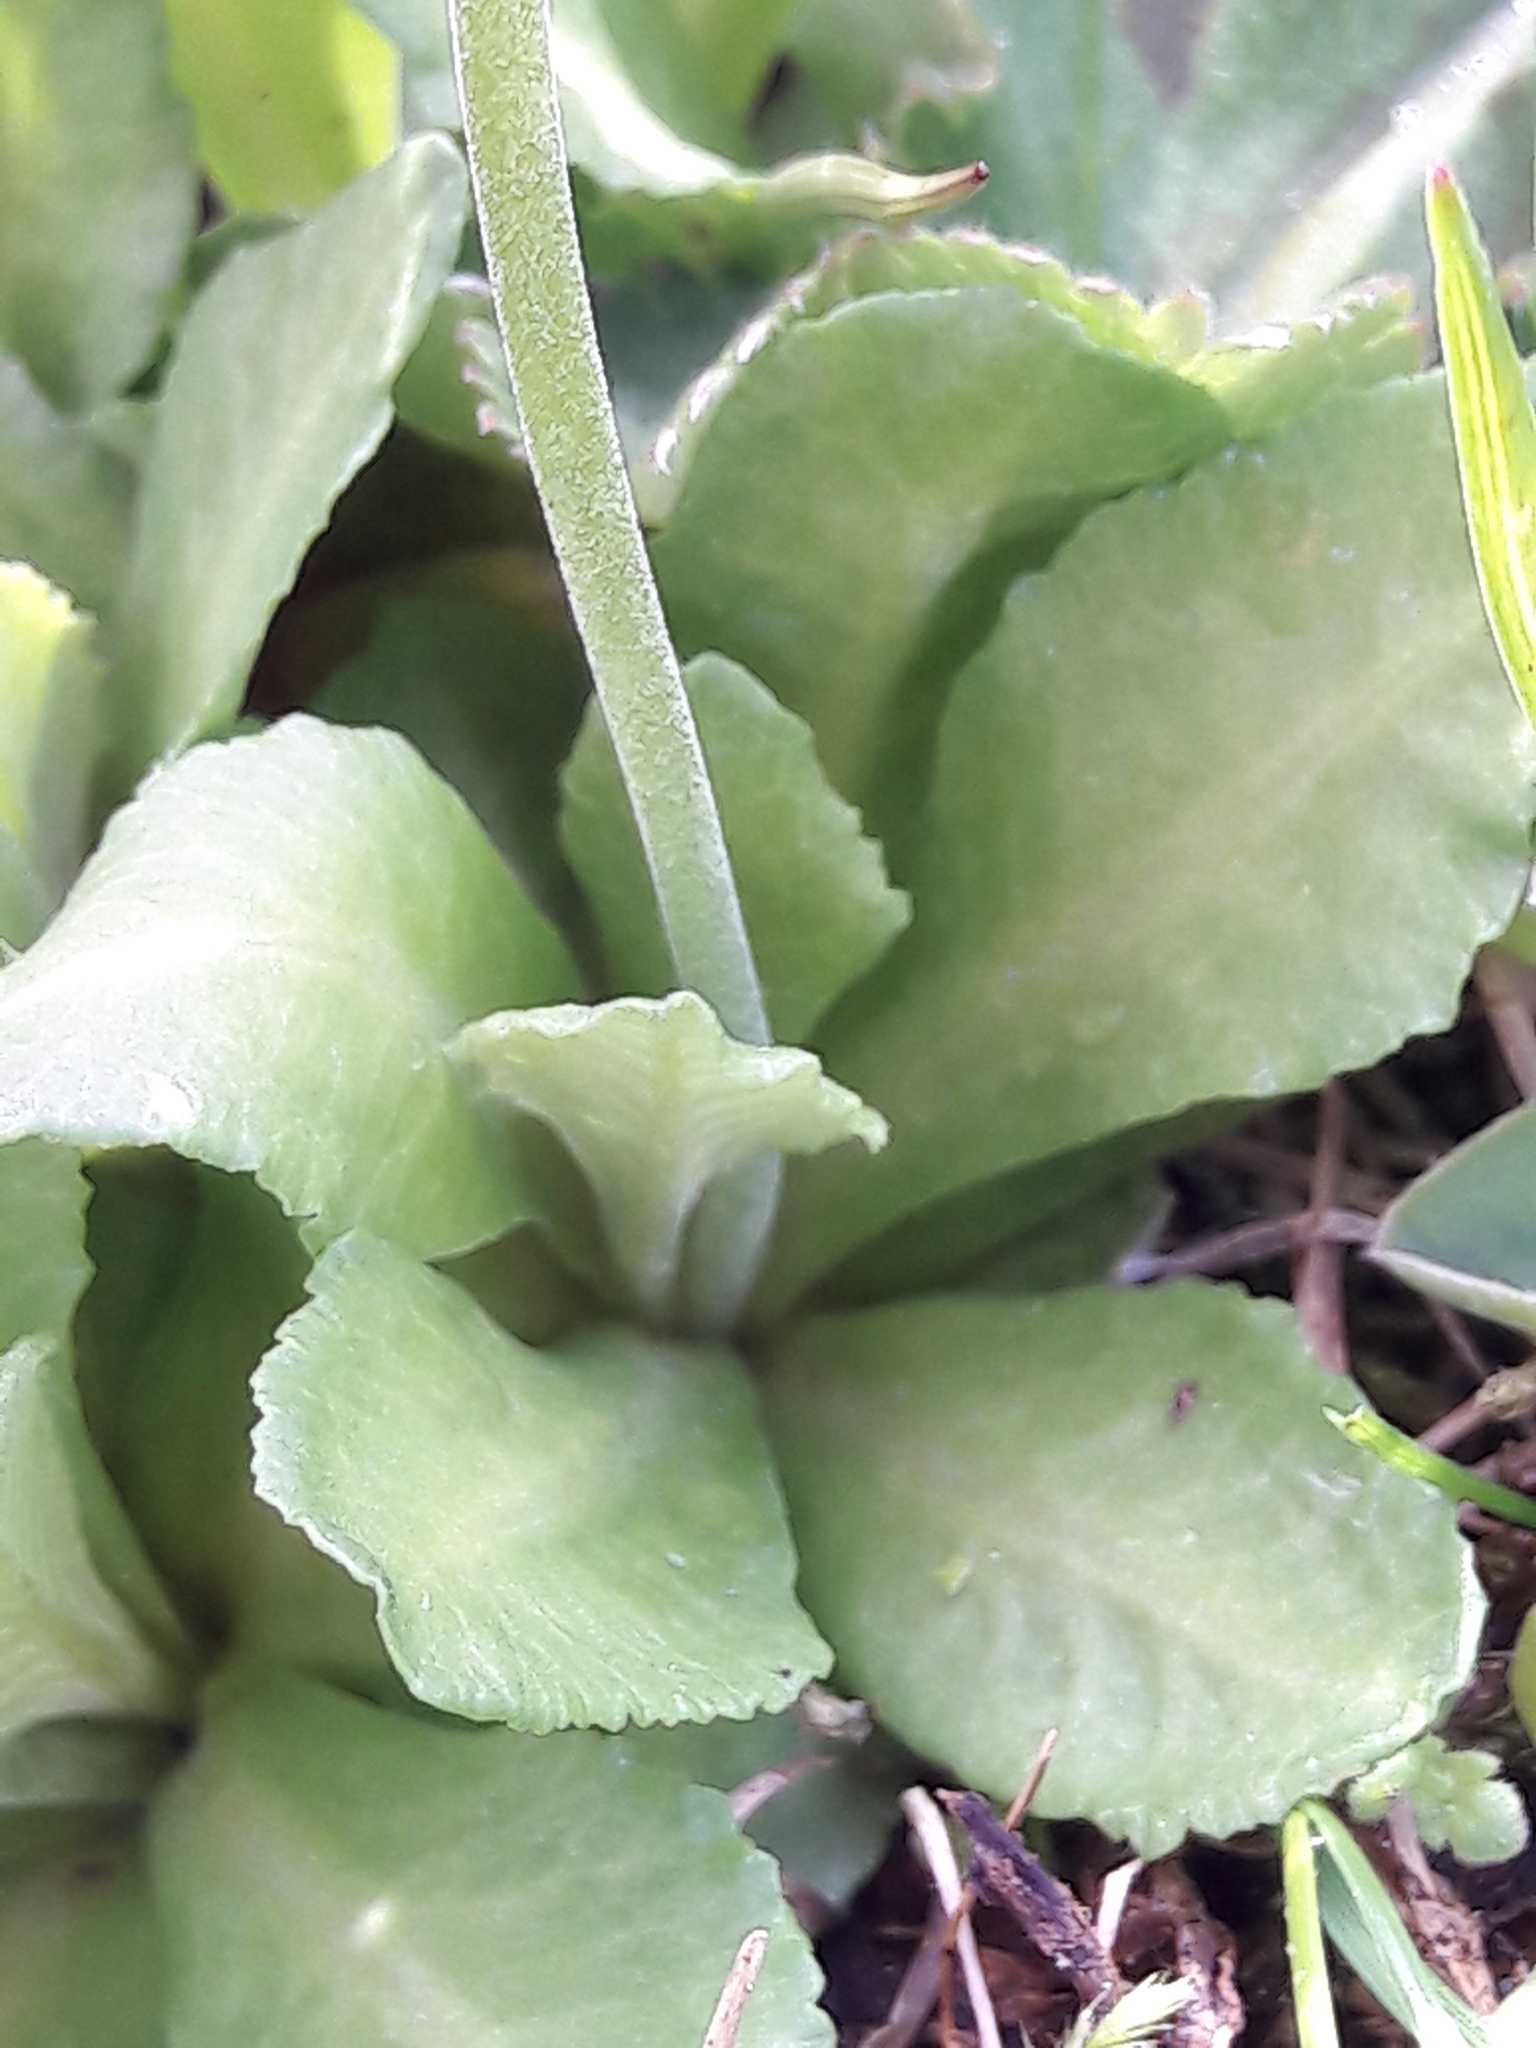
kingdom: Plantae
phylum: Tracheophyta
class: Magnoliopsida
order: Ericales
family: Primulaceae
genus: Primula
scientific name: Primula farinosa
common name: Bird's-eye primrose
